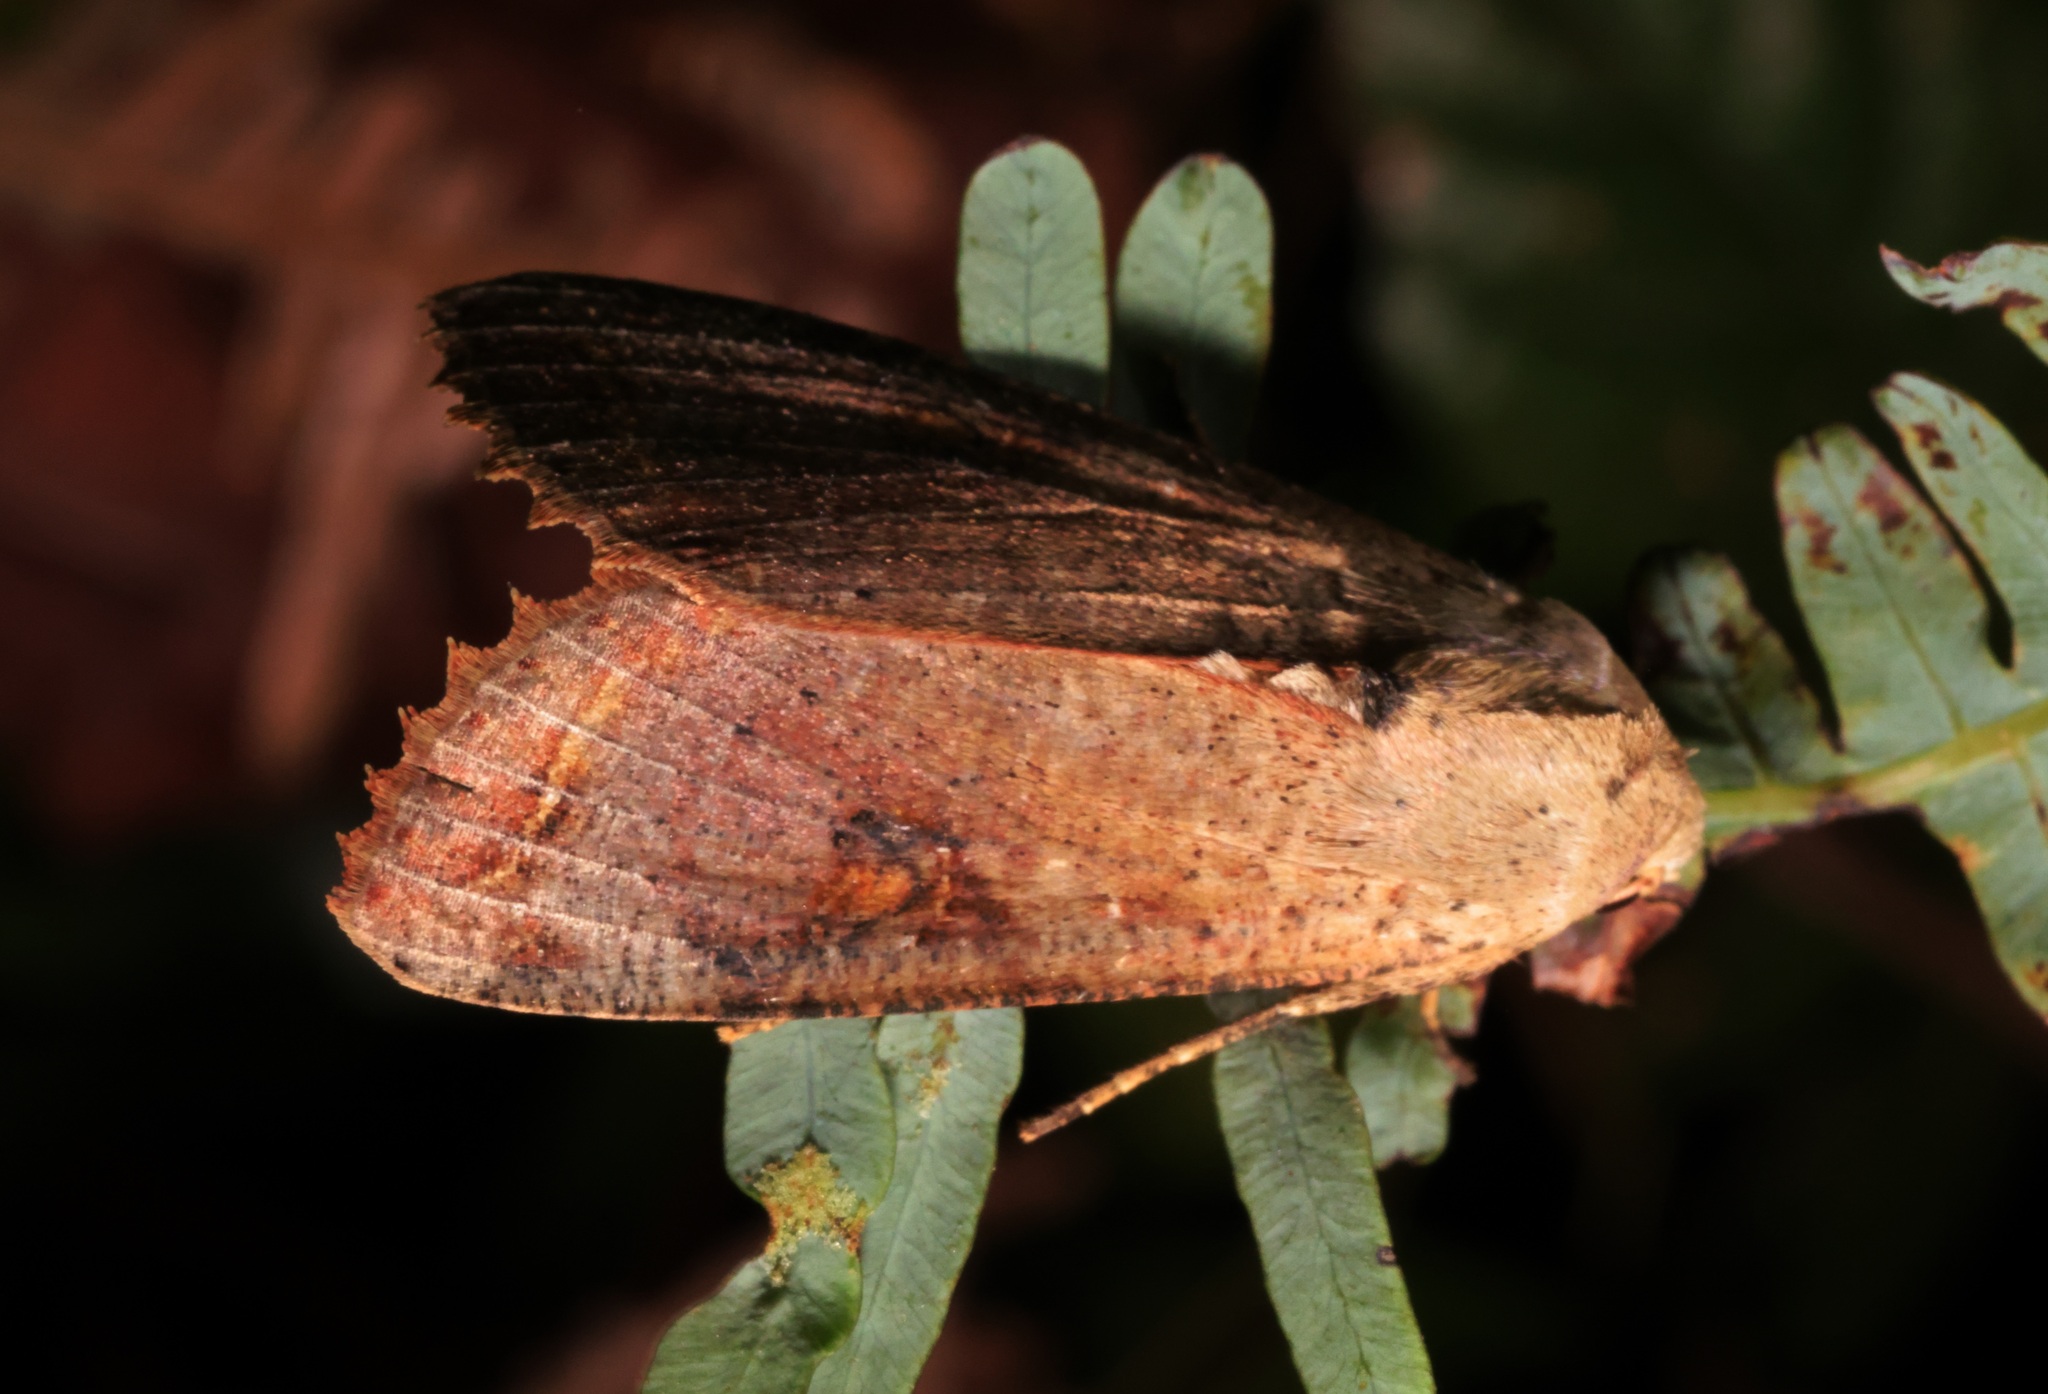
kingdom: Animalia
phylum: Arthropoda
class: Insecta
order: Lepidoptera
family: Noctuidae
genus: Tiracola
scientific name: Tiracola aureata
